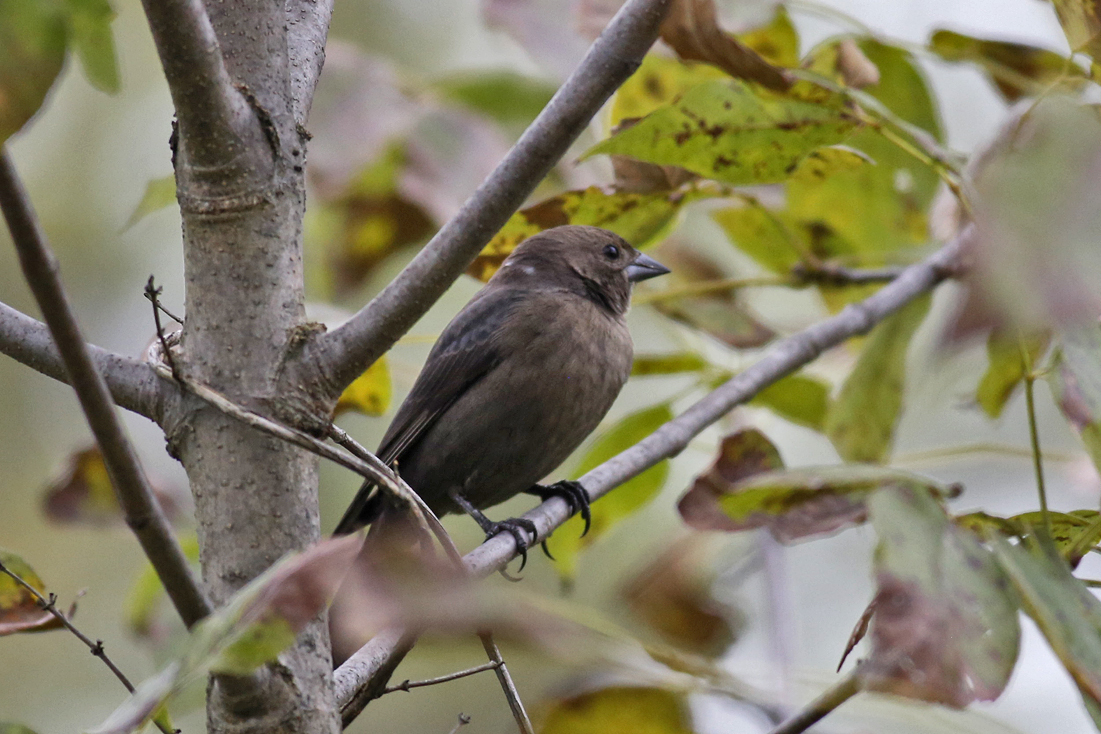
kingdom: Animalia
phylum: Chordata
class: Aves
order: Passeriformes
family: Icteridae
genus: Molothrus
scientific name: Molothrus ater
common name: Brown-headed cowbird
